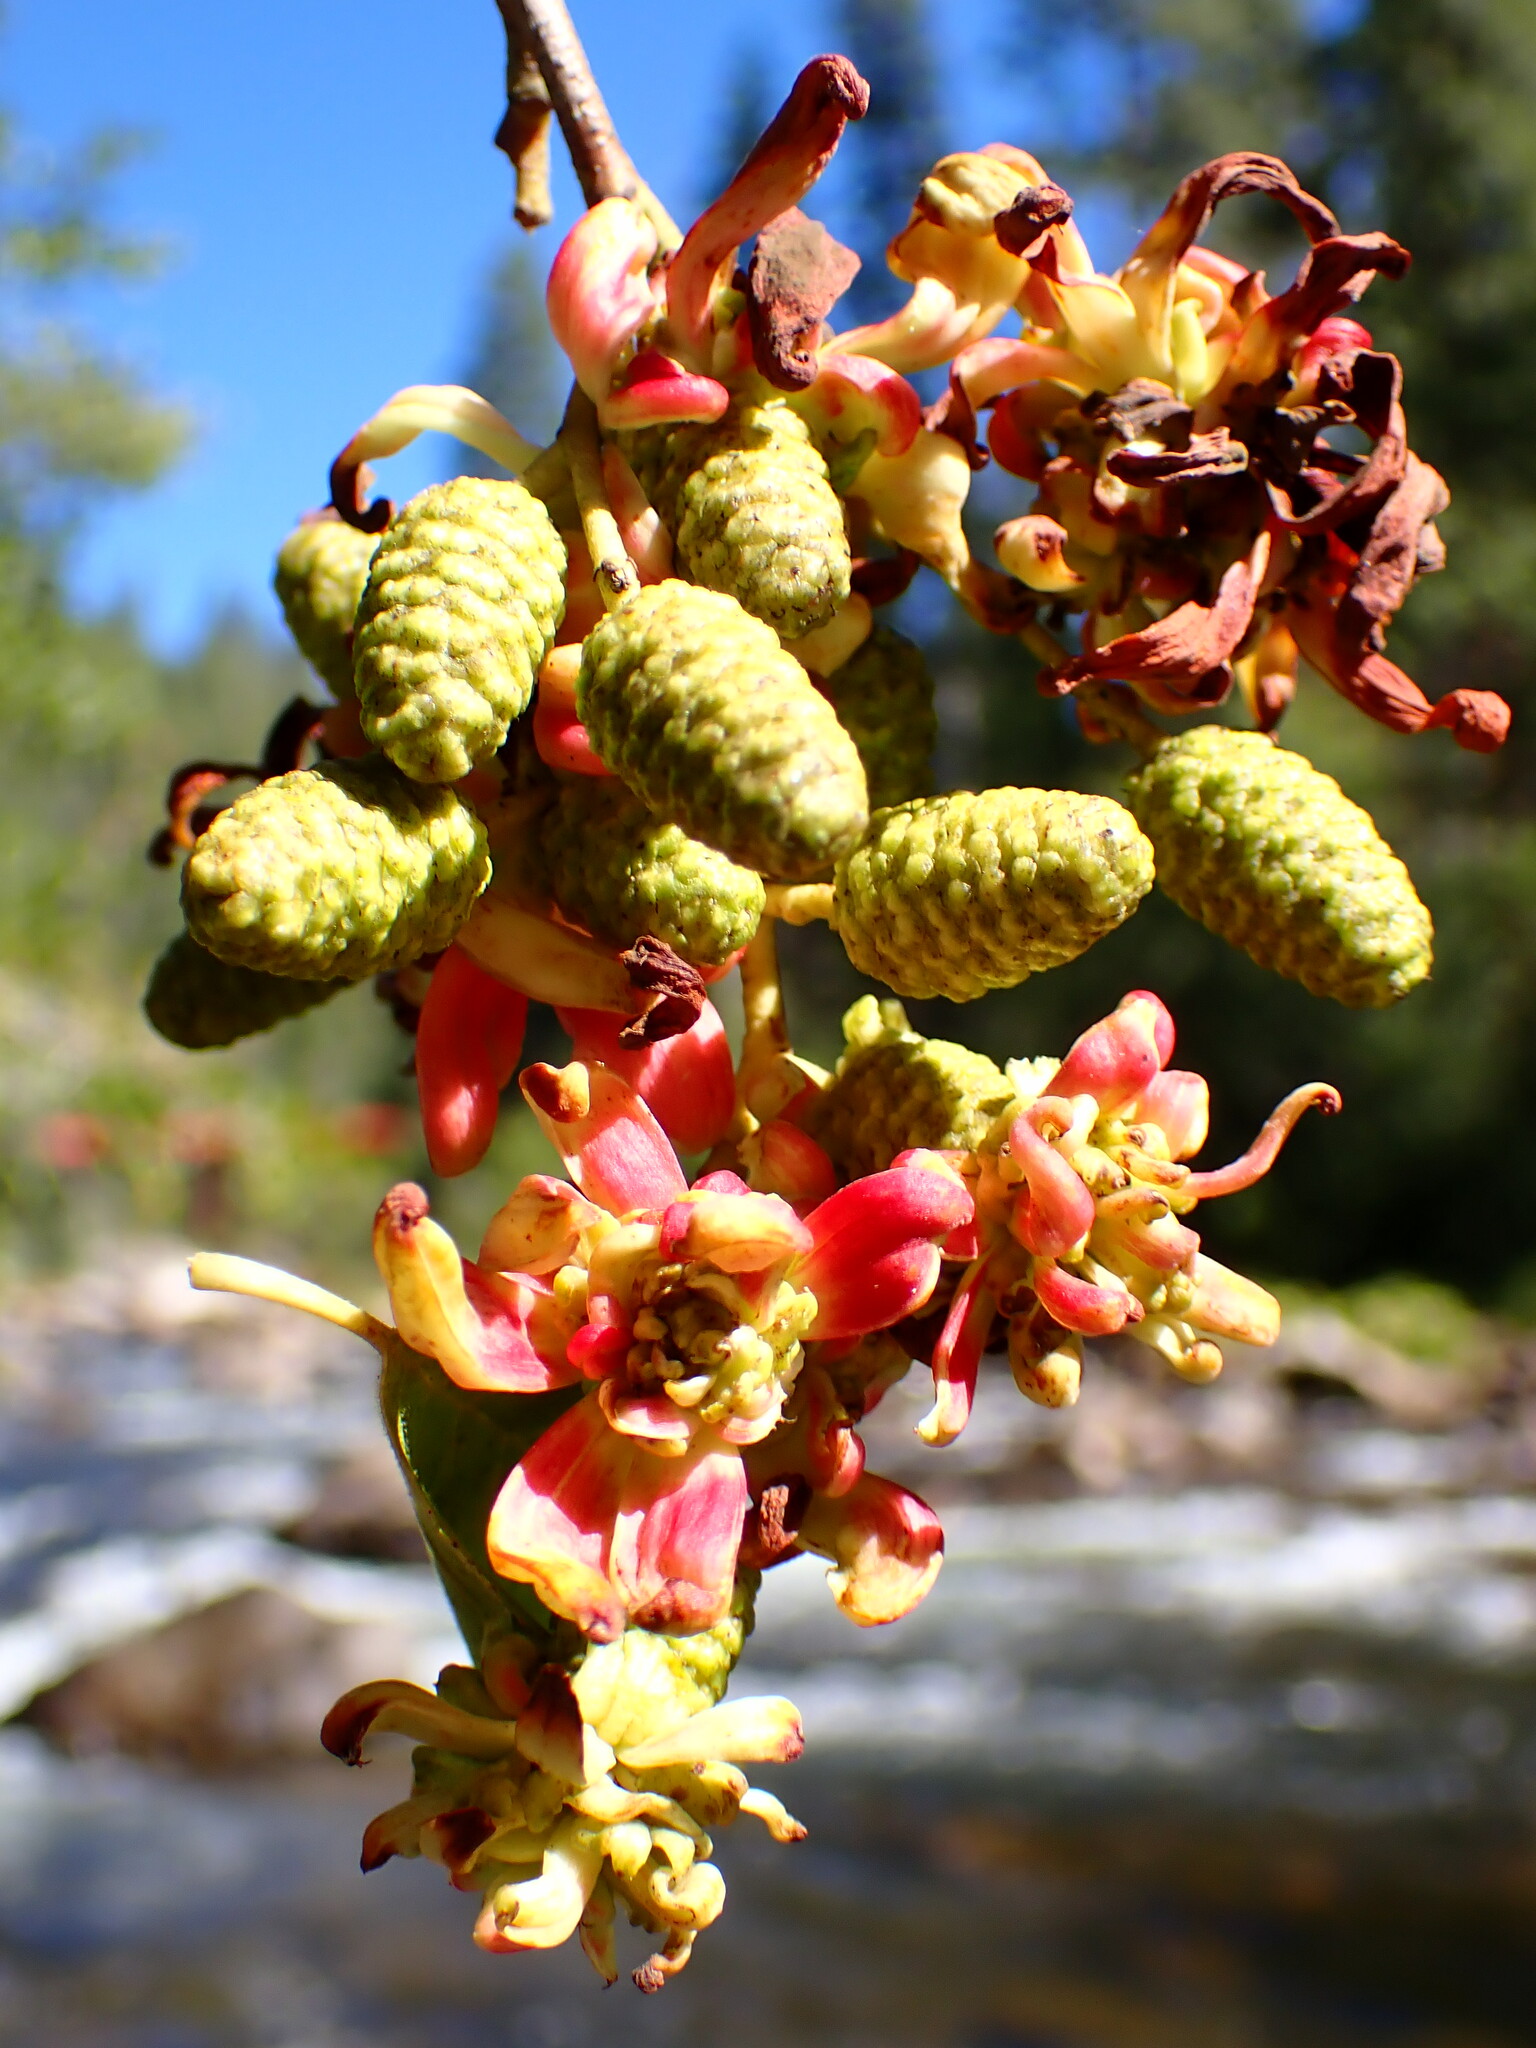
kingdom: Fungi
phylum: Ascomycota
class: Taphrinomycetes
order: Taphrinales
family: Taphrinaceae
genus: Taphrina
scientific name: Taphrina occidentalis
